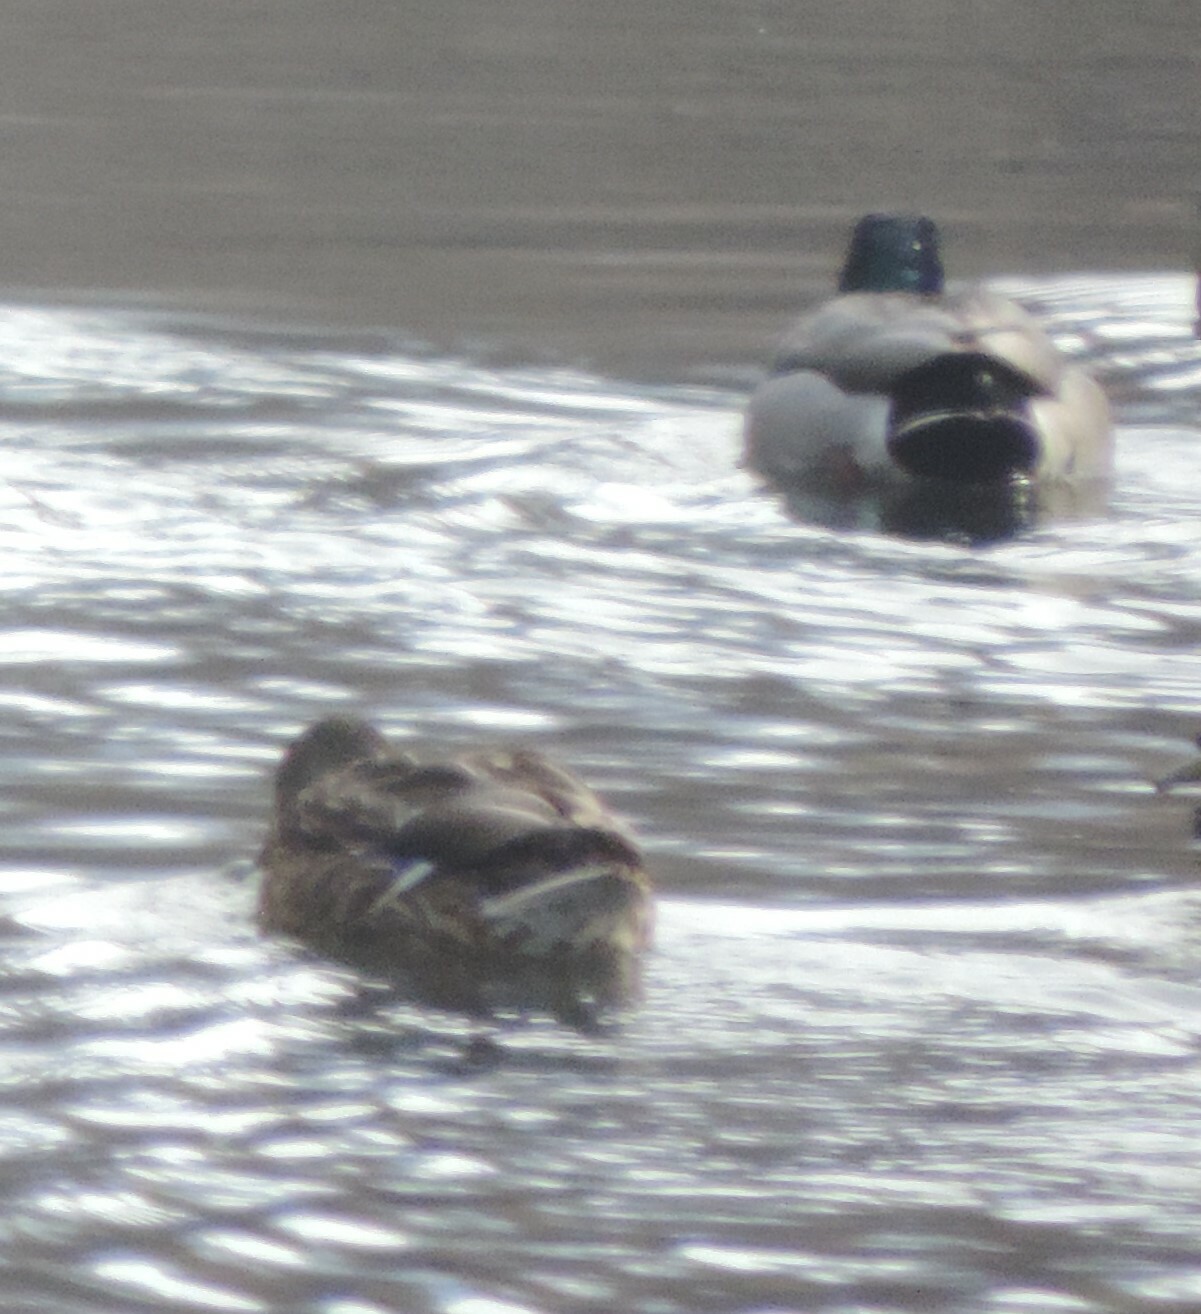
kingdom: Animalia
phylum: Chordata
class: Aves
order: Anseriformes
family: Anatidae
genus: Anas
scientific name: Anas platyrhynchos
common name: Mallard
